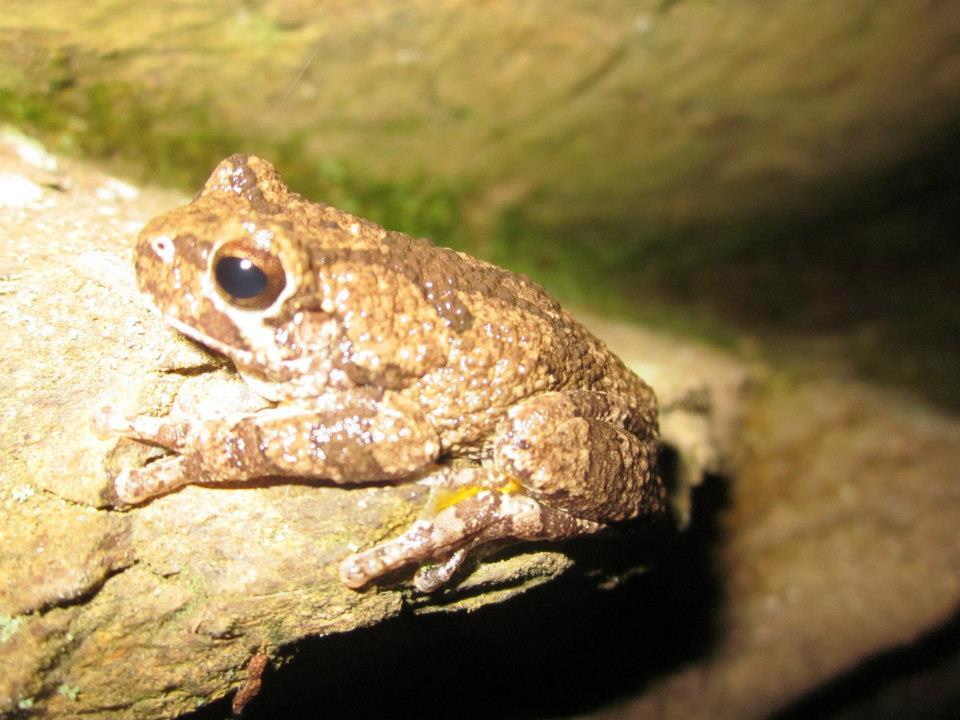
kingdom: Animalia
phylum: Chordata
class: Amphibia
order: Anura
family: Hylidae
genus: Hyla
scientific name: Hyla
